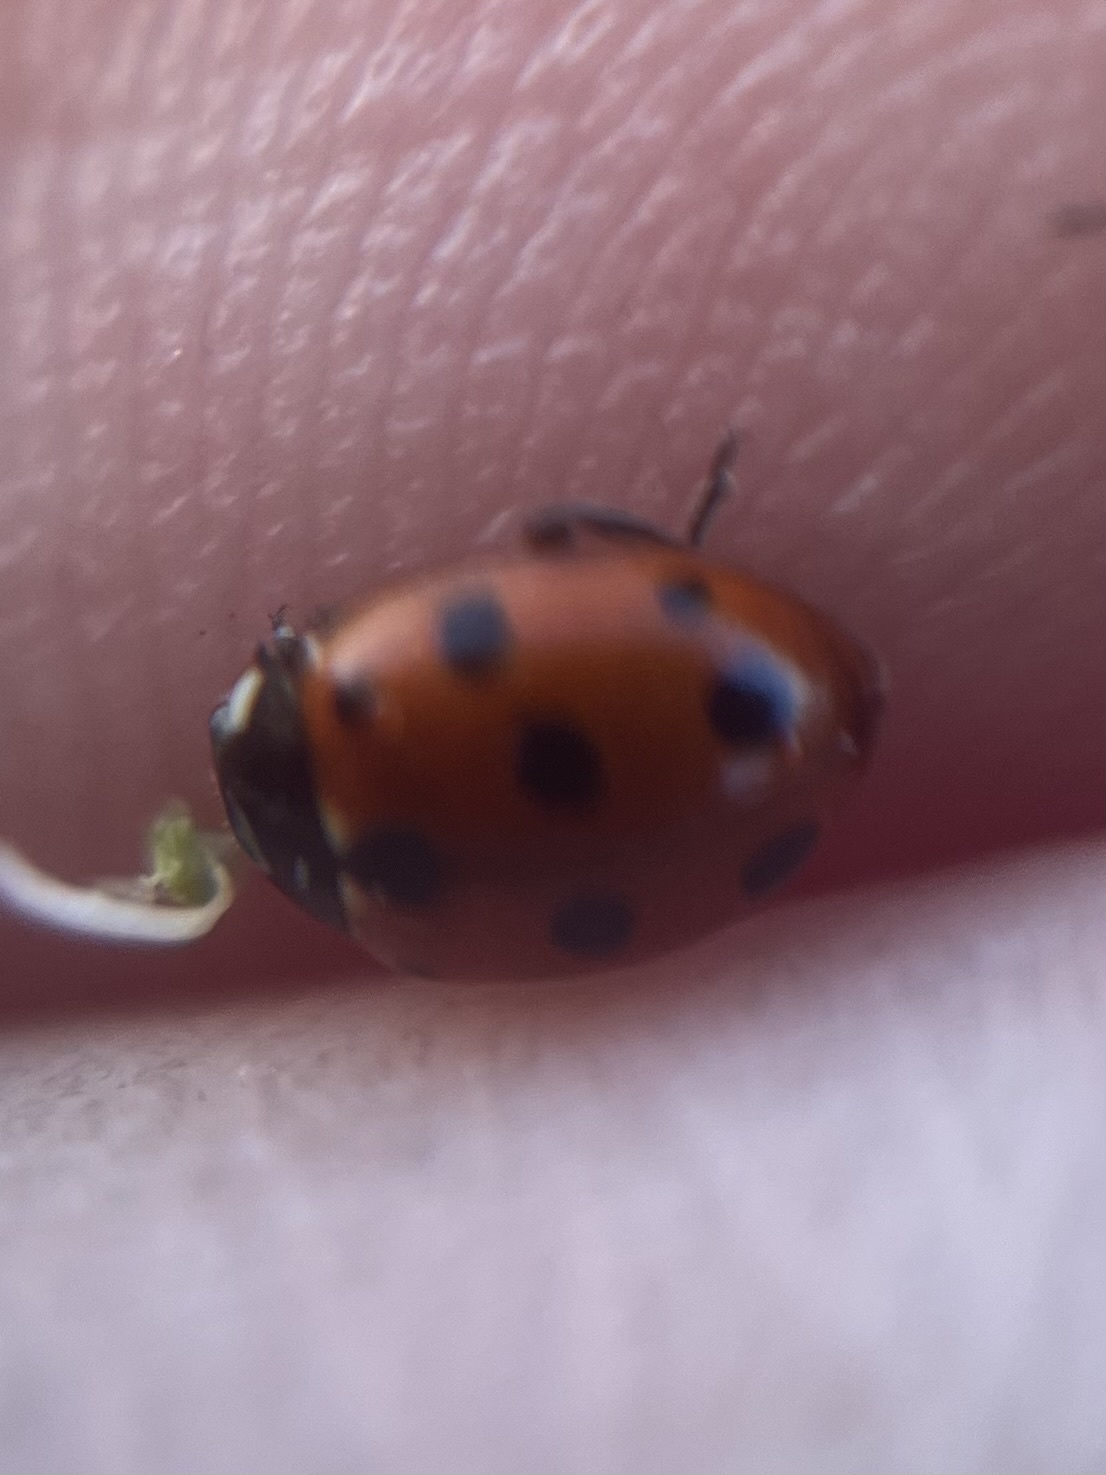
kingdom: Animalia
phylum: Arthropoda
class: Insecta
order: Coleoptera
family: Coccinellidae
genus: Coccinella
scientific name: Coccinella undecimpunctata
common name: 11-spot ladybird
